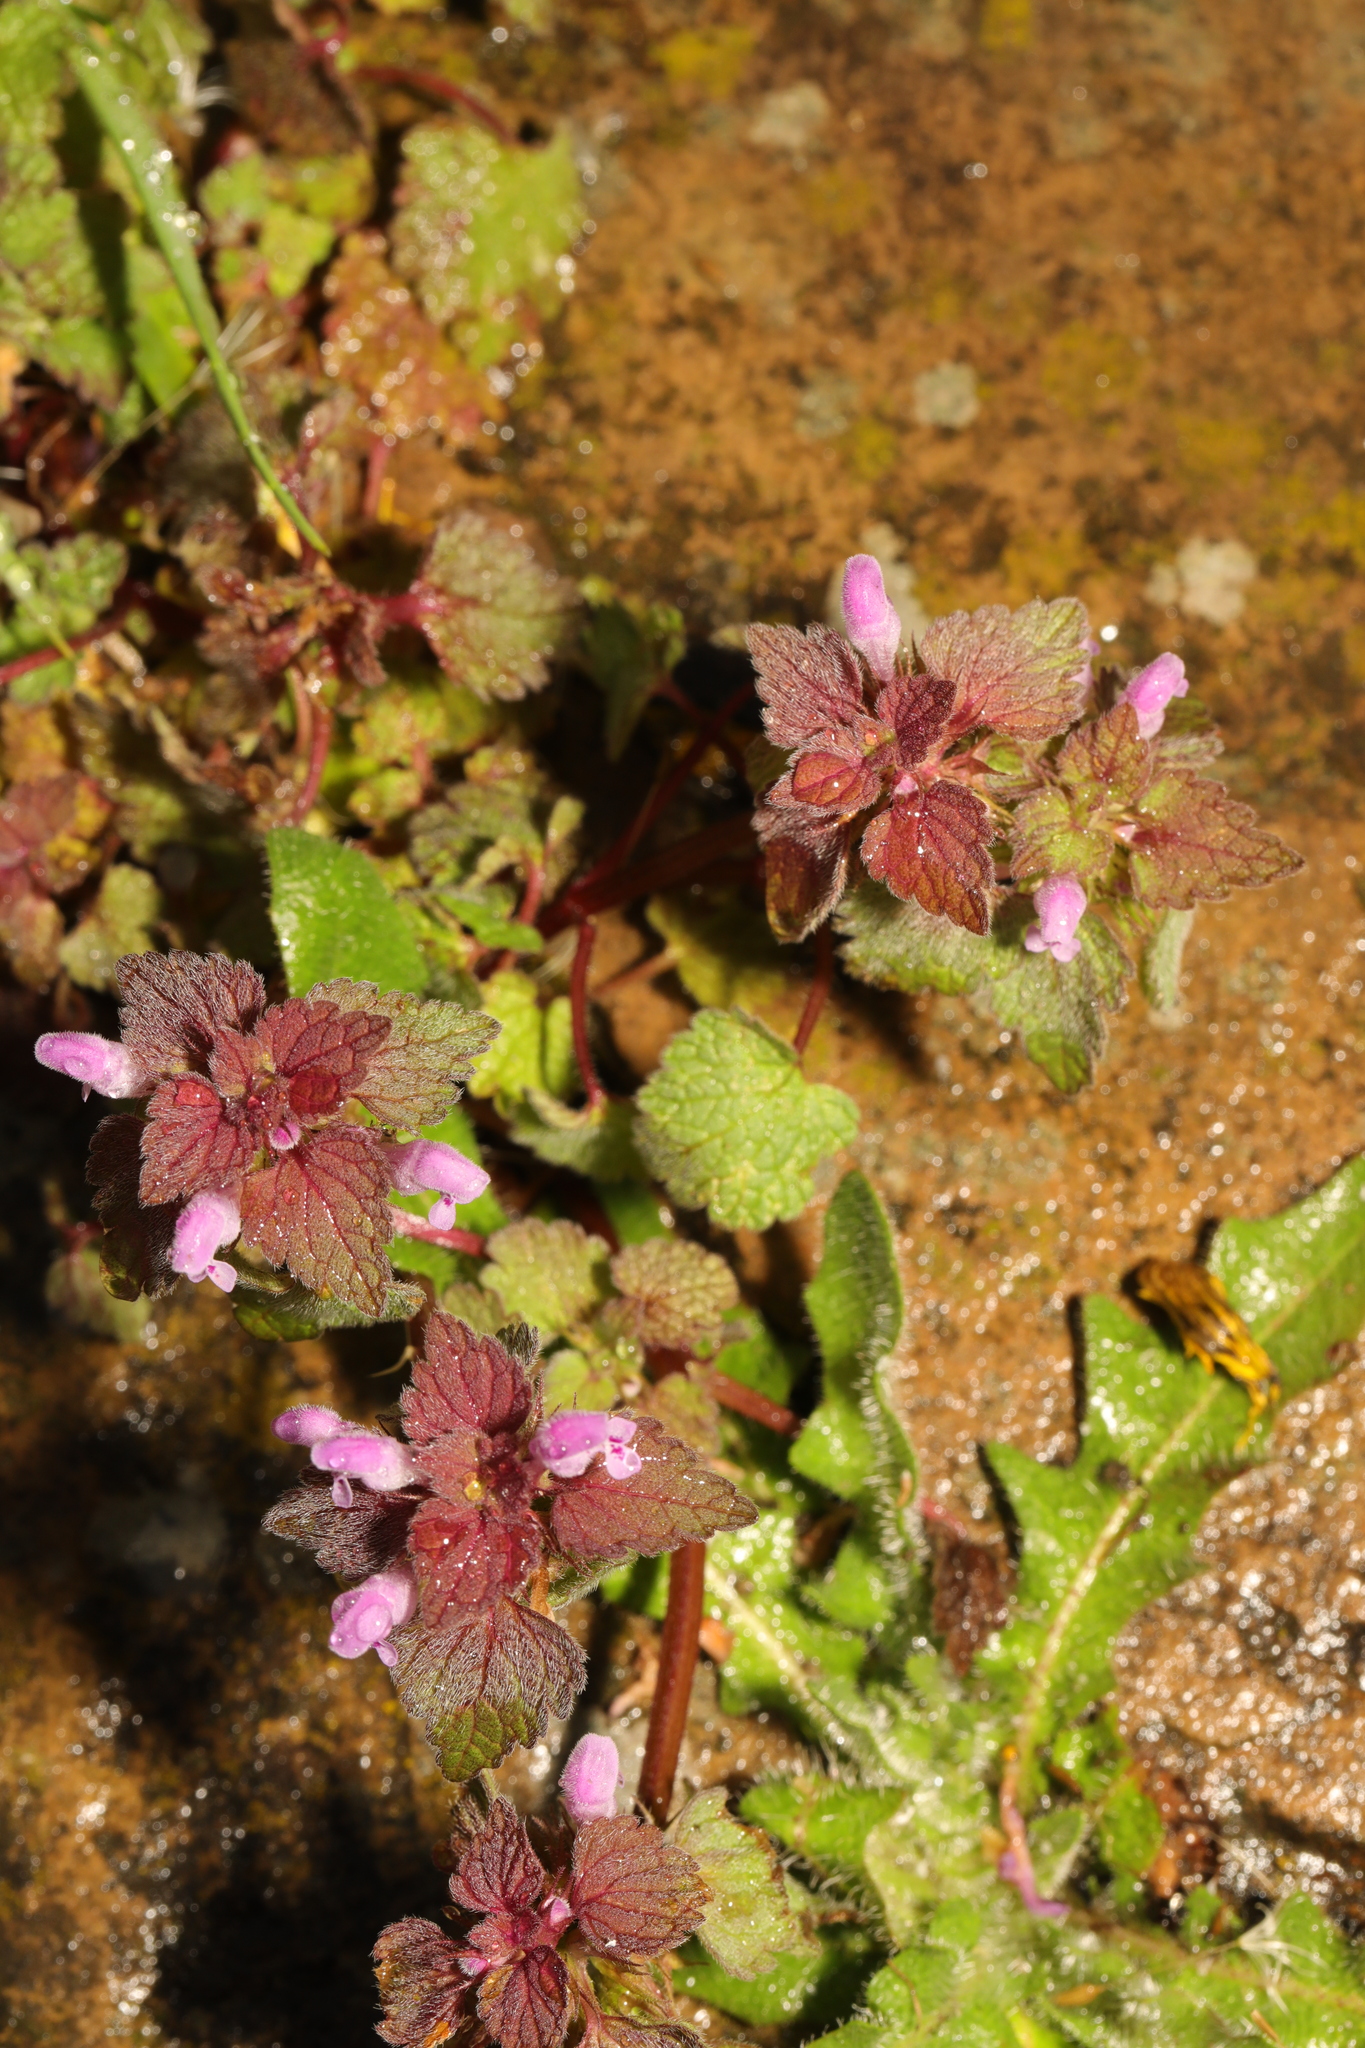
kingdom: Plantae
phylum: Tracheophyta
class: Magnoliopsida
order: Lamiales
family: Lamiaceae
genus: Lamium
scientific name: Lamium purpureum
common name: Red dead-nettle
